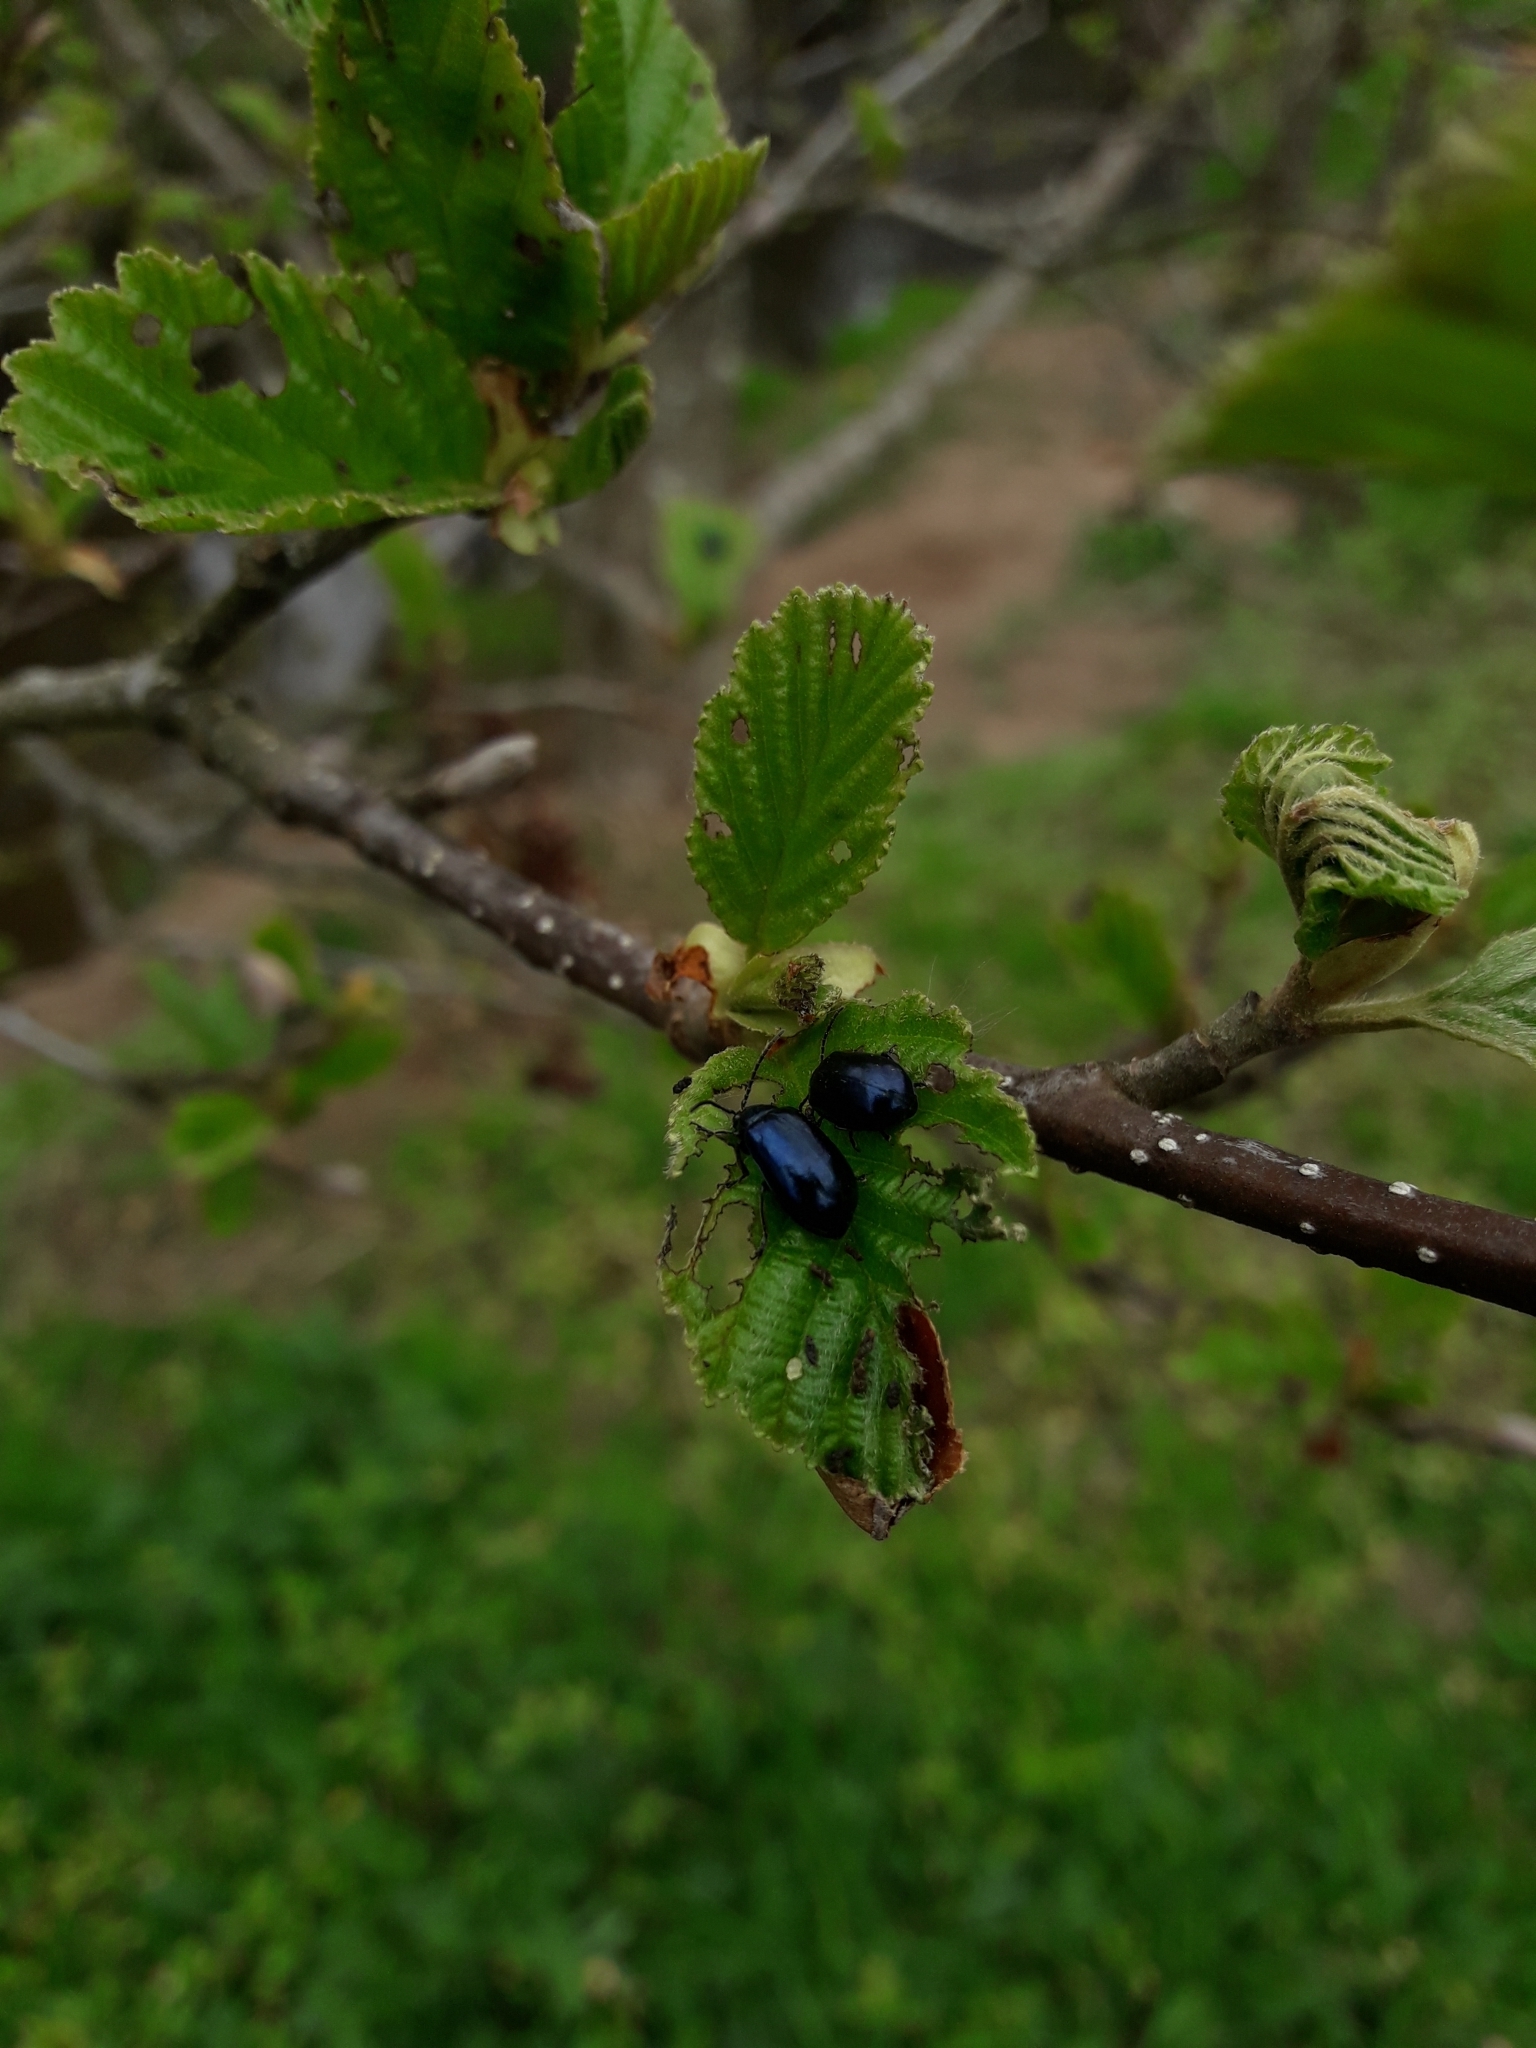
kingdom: Animalia
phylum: Arthropoda
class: Insecta
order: Coleoptera
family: Chrysomelidae
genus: Agelastica
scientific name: Agelastica alni
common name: Alder leaf beetle
